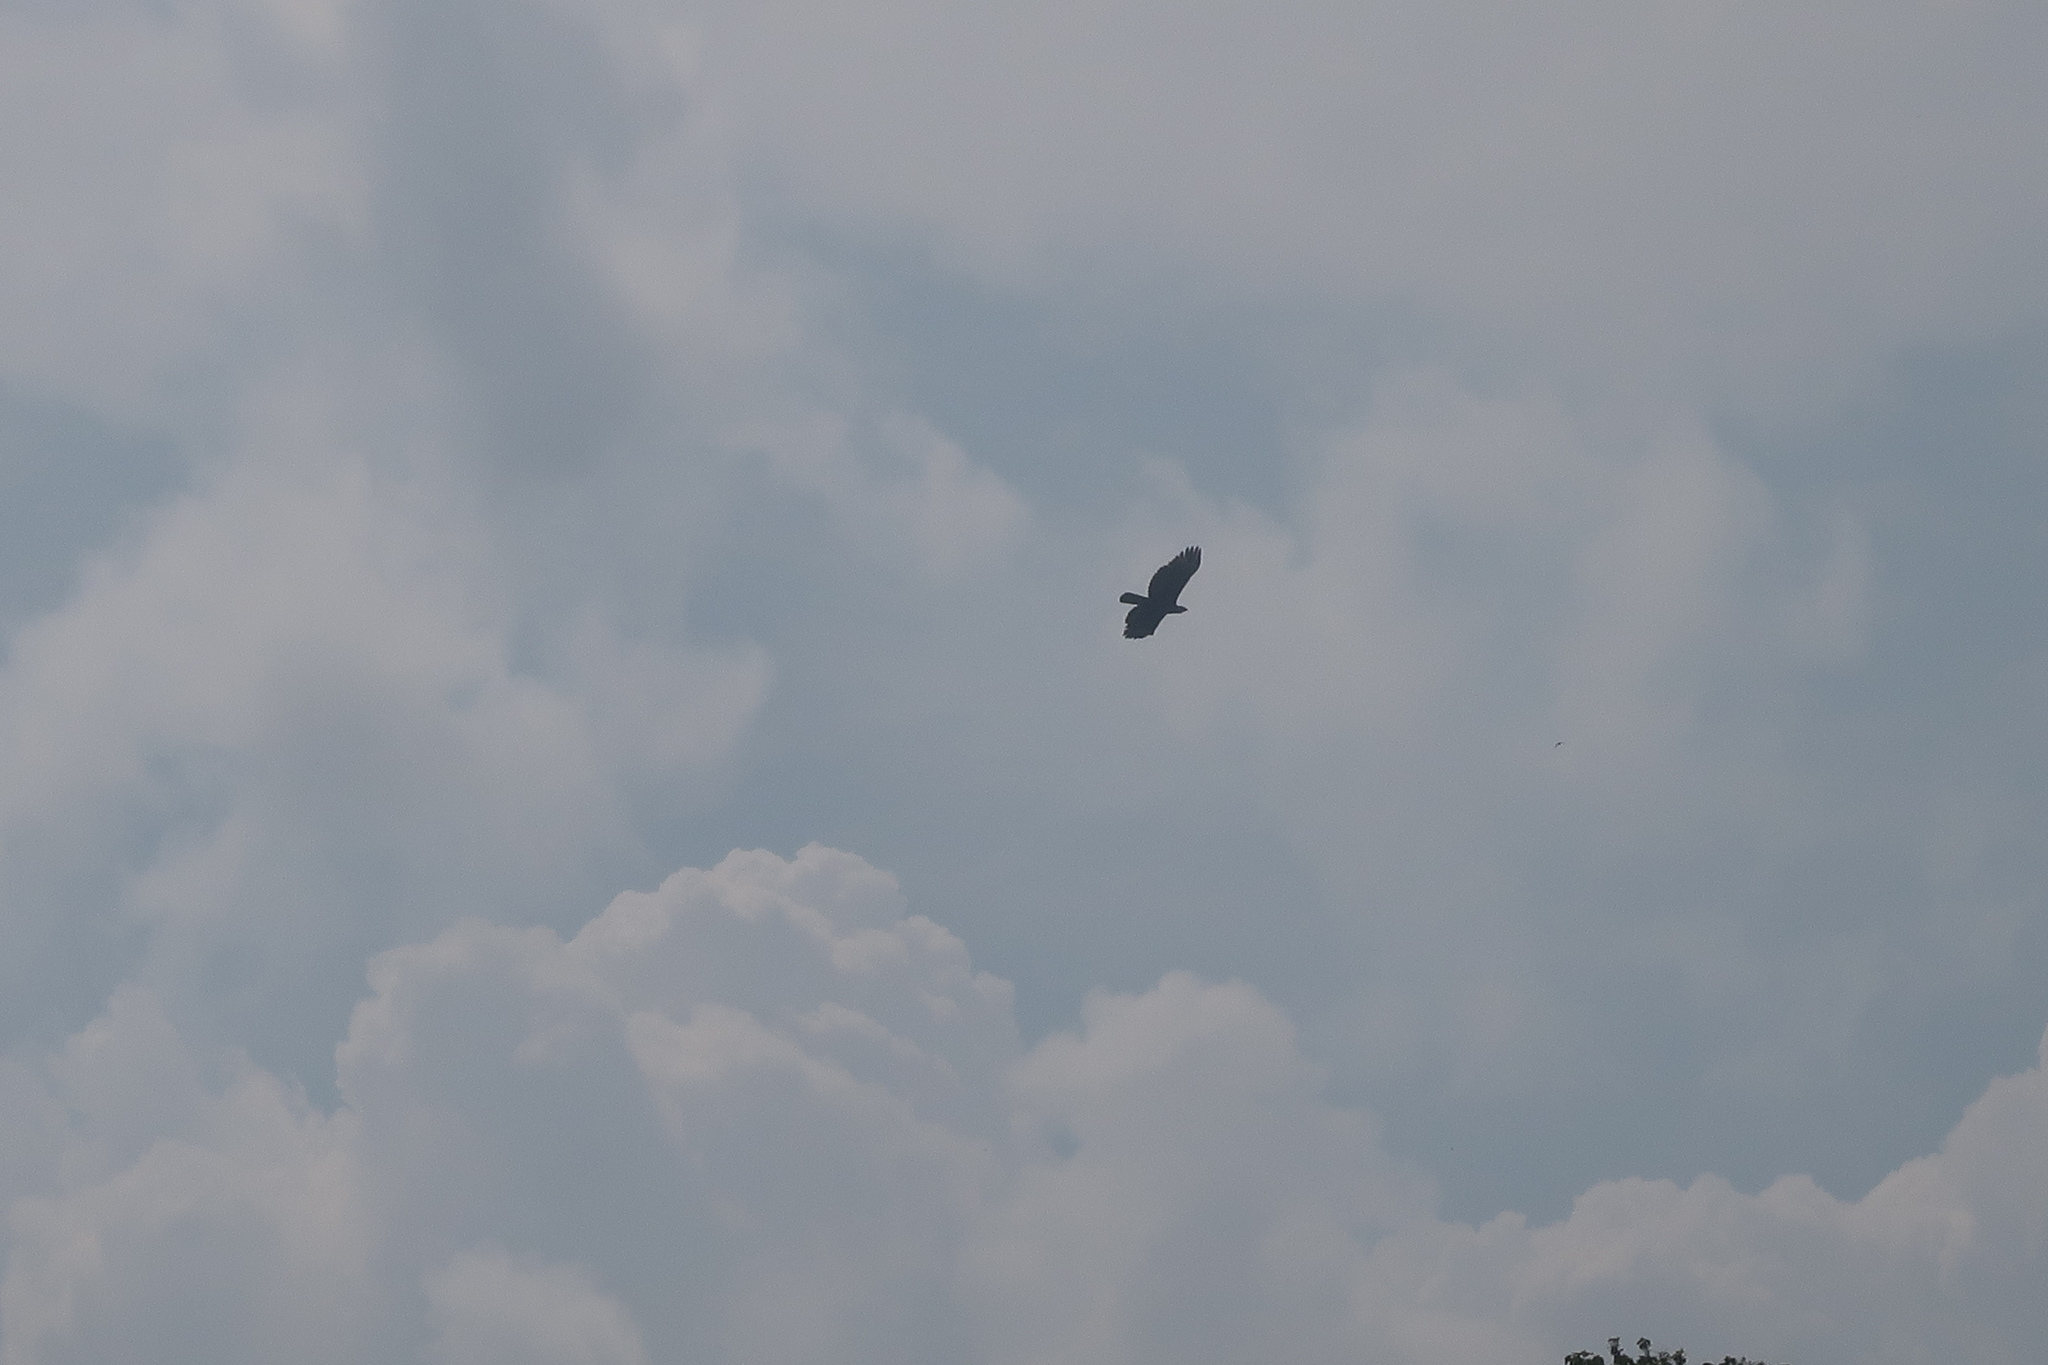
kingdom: Animalia
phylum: Chordata
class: Aves
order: Accipitriformes
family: Accipitridae
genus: Nisaetus
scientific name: Nisaetus cirrhatus
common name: Changeable hawk-eagle
